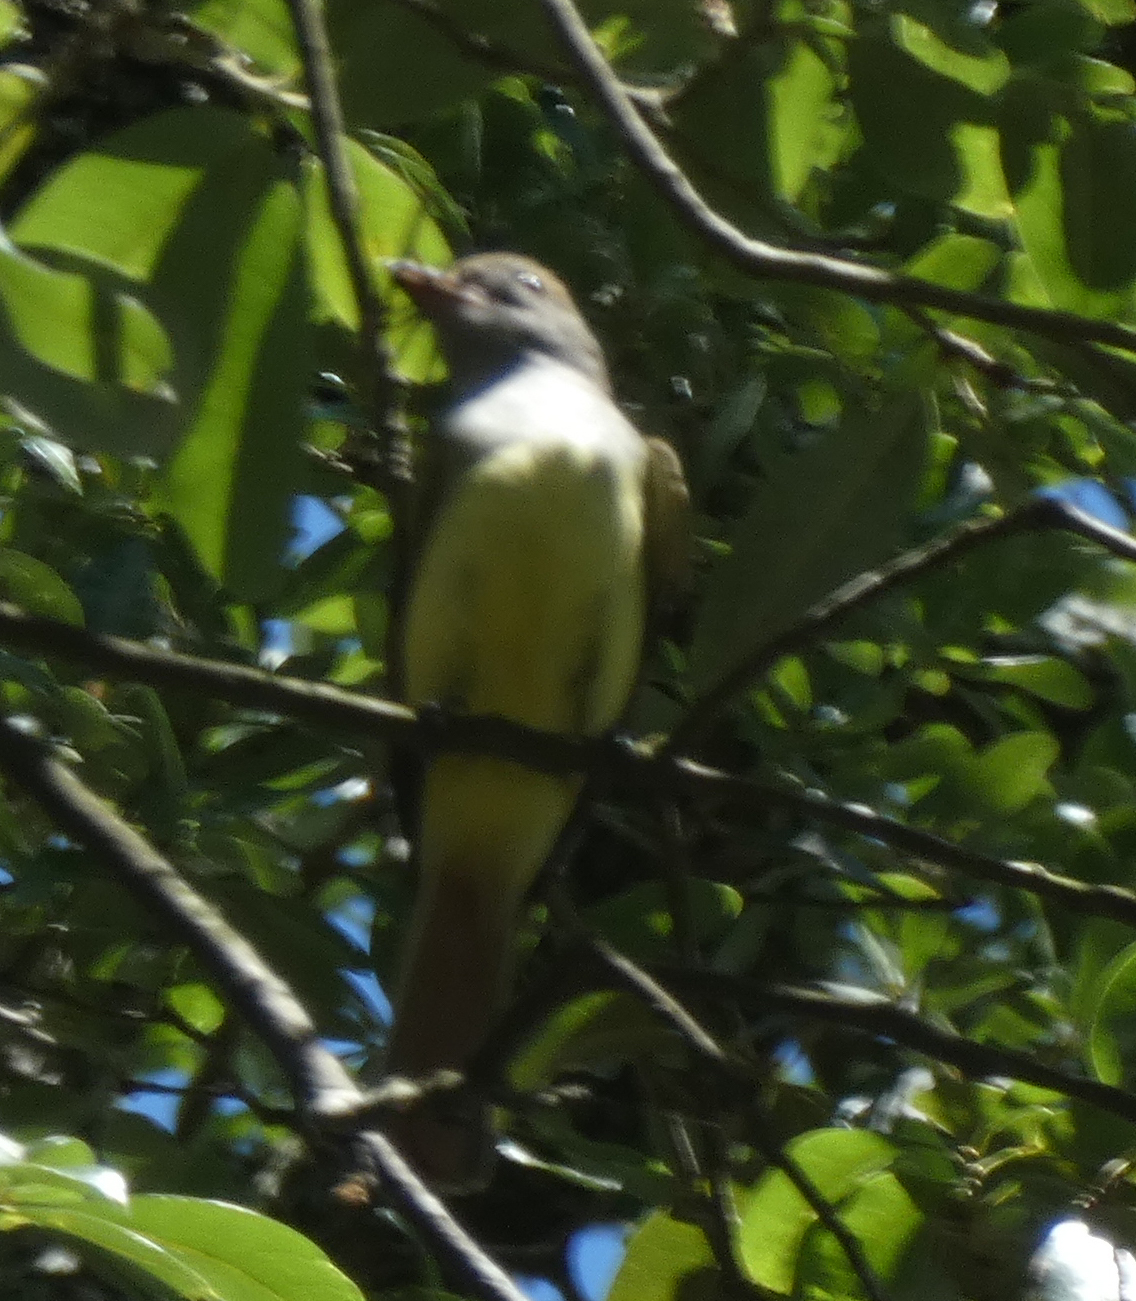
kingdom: Animalia
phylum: Chordata
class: Aves
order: Passeriformes
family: Tyrannidae
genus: Myiarchus
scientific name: Myiarchus crinitus
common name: Great crested flycatcher
